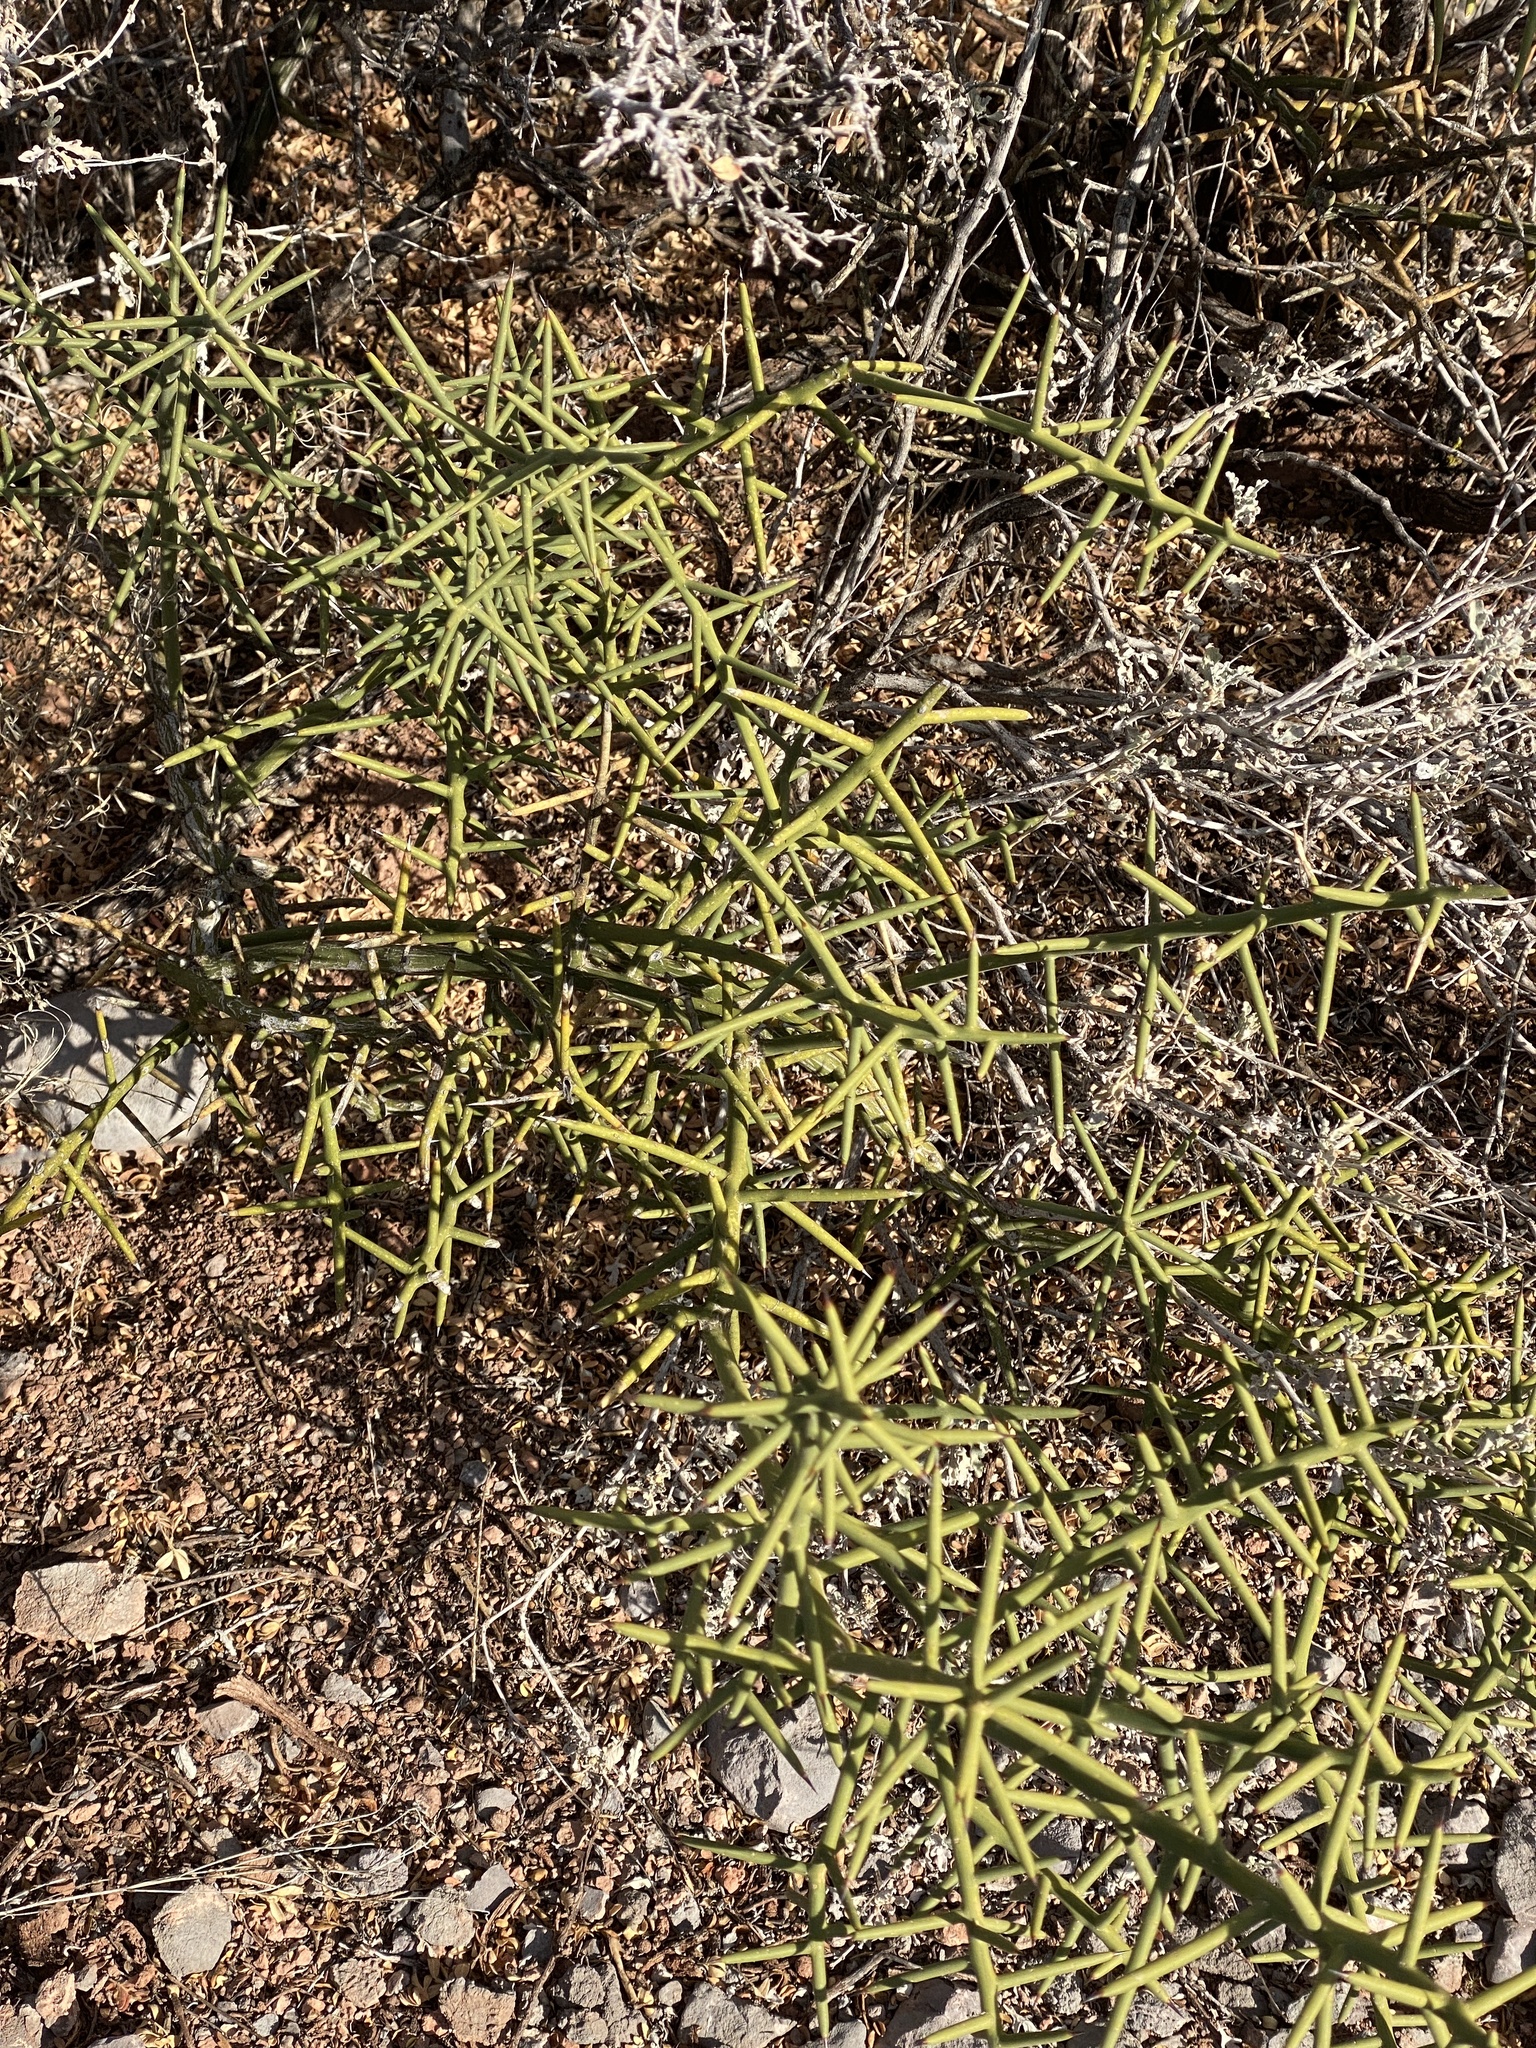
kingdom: Plantae
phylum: Tracheophyta
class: Magnoliopsida
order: Brassicales
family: Koeberliniaceae
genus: Koeberlinia
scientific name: Koeberlinia spinosa
